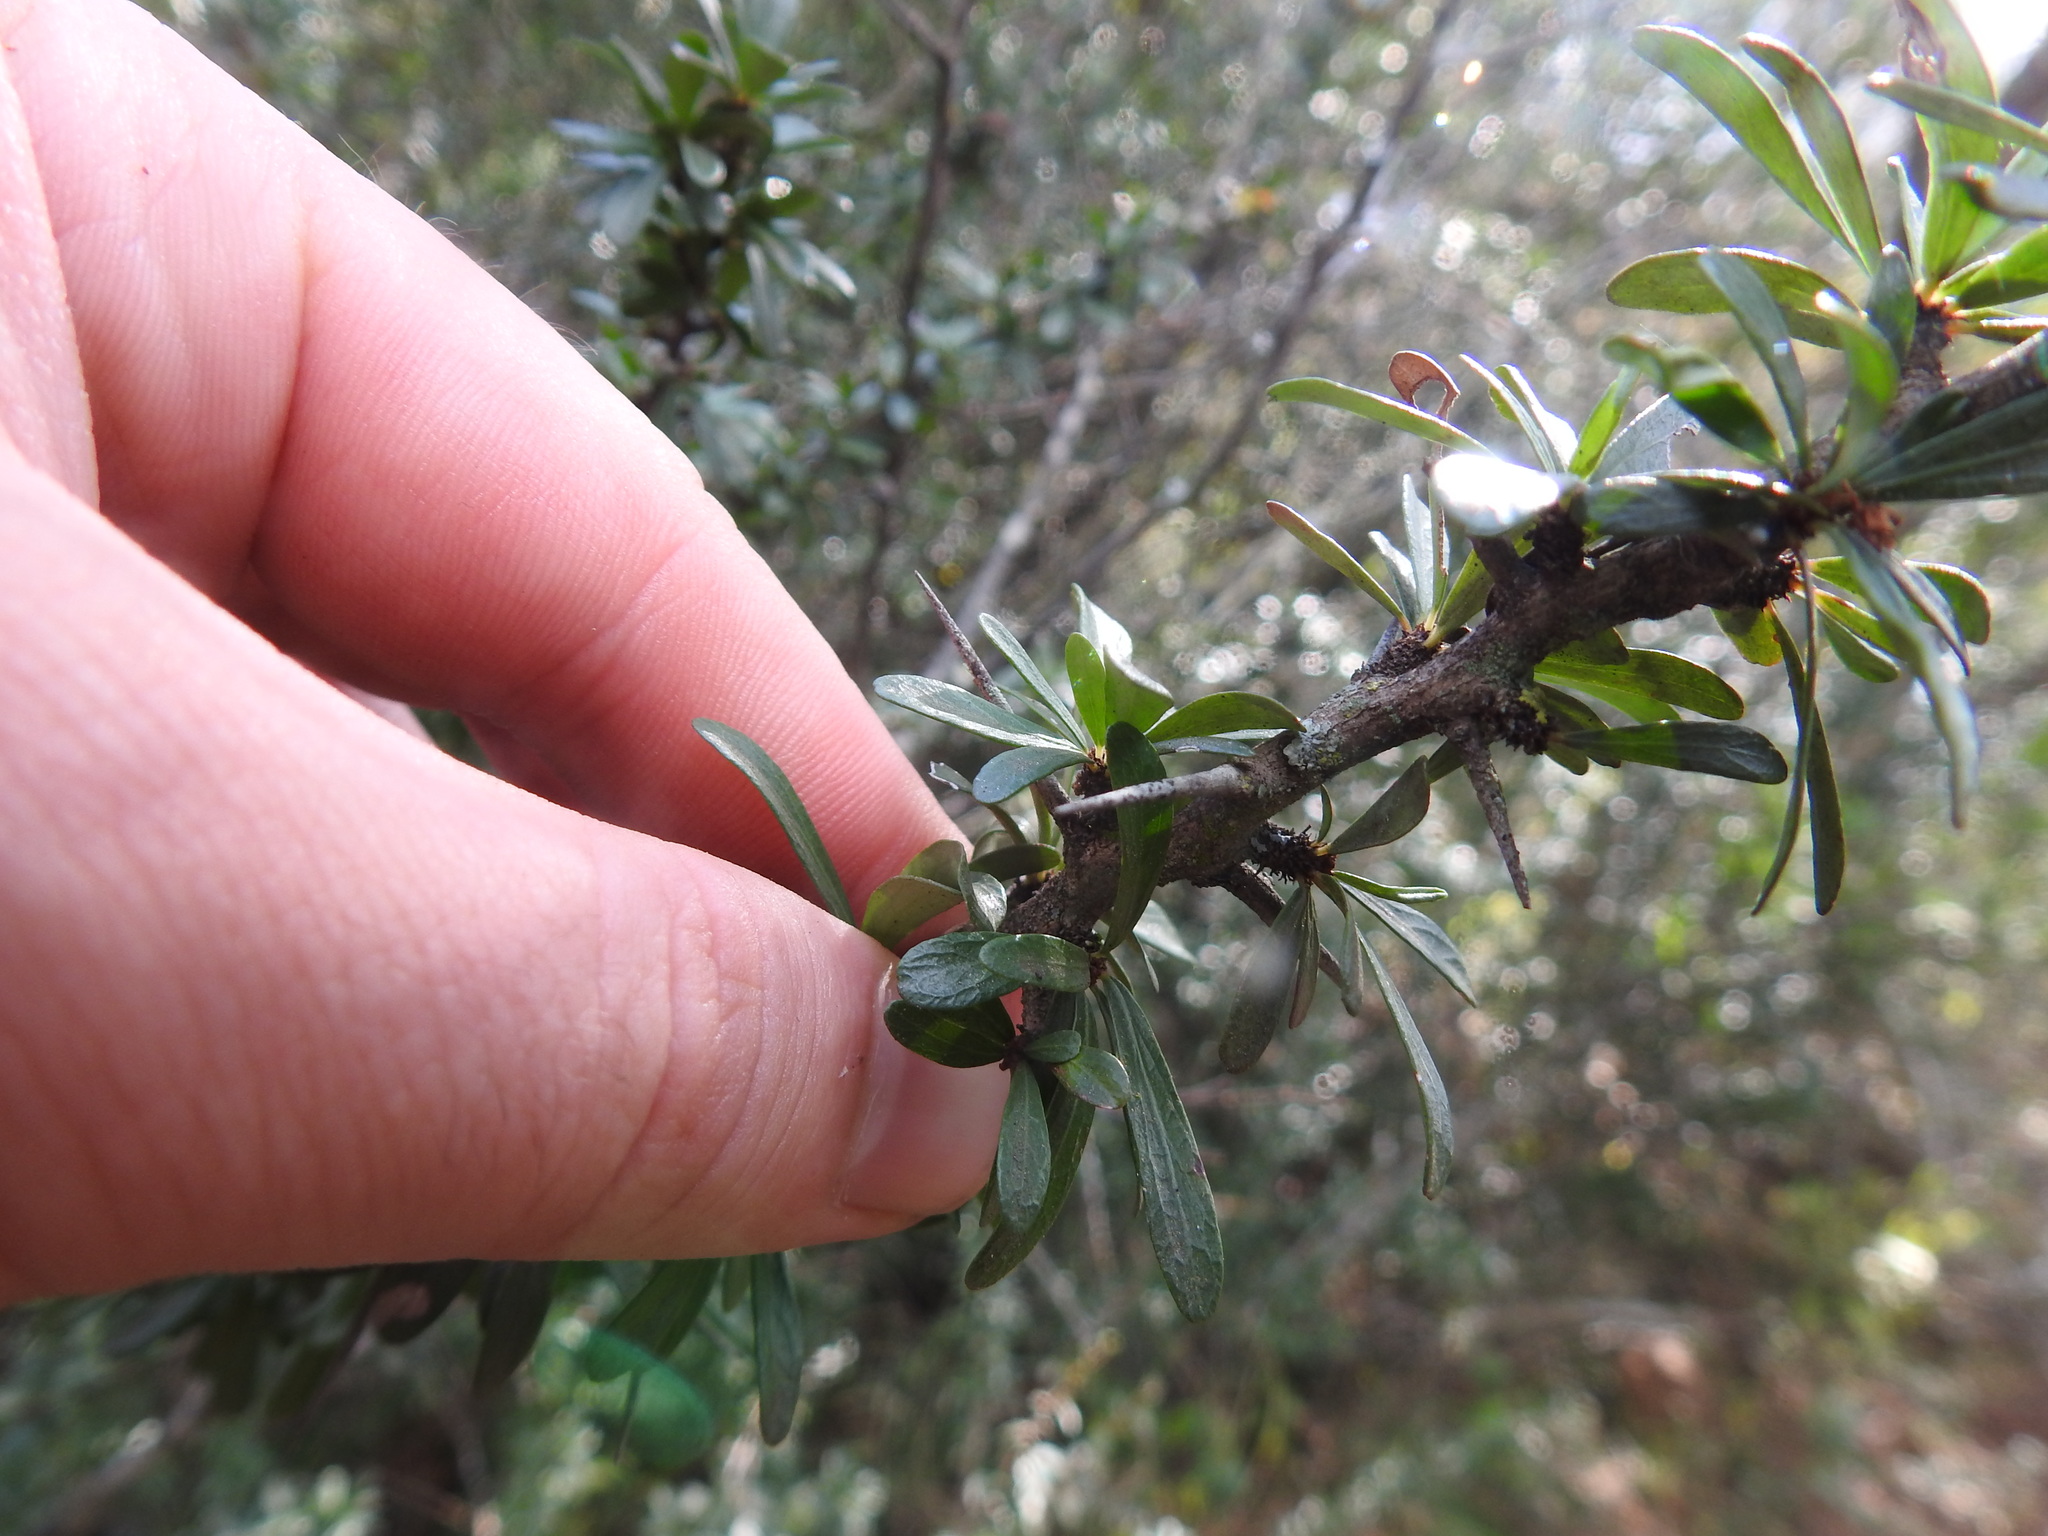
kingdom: Plantae
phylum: Tracheophyta
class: Magnoliopsida
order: Celastrales
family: Celastraceae
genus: Gymnosporia
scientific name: Gymnosporia polyacantha
